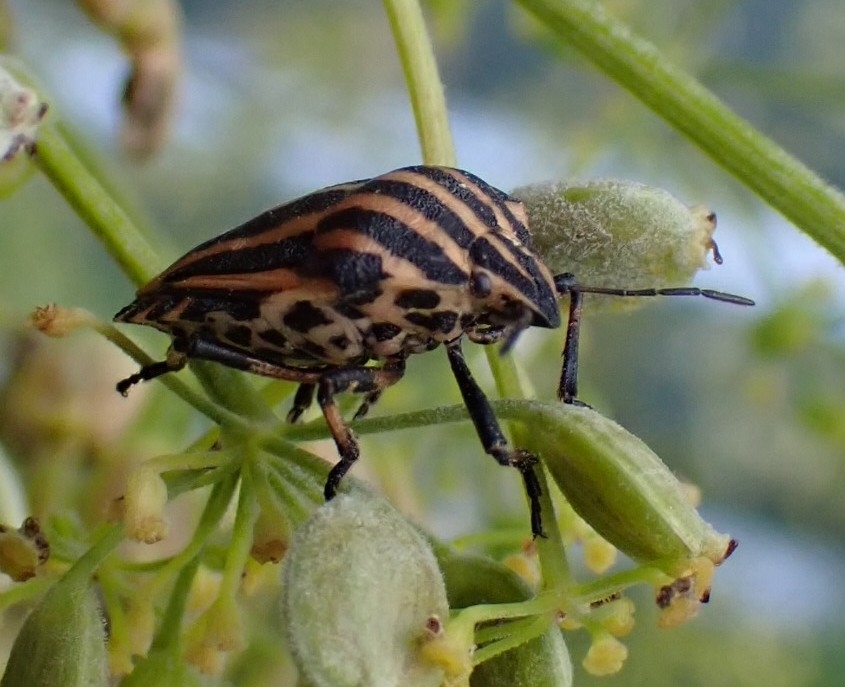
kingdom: Animalia
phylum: Arthropoda
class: Insecta
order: Hemiptera
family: Pentatomidae
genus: Graphosoma
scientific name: Graphosoma italicum
